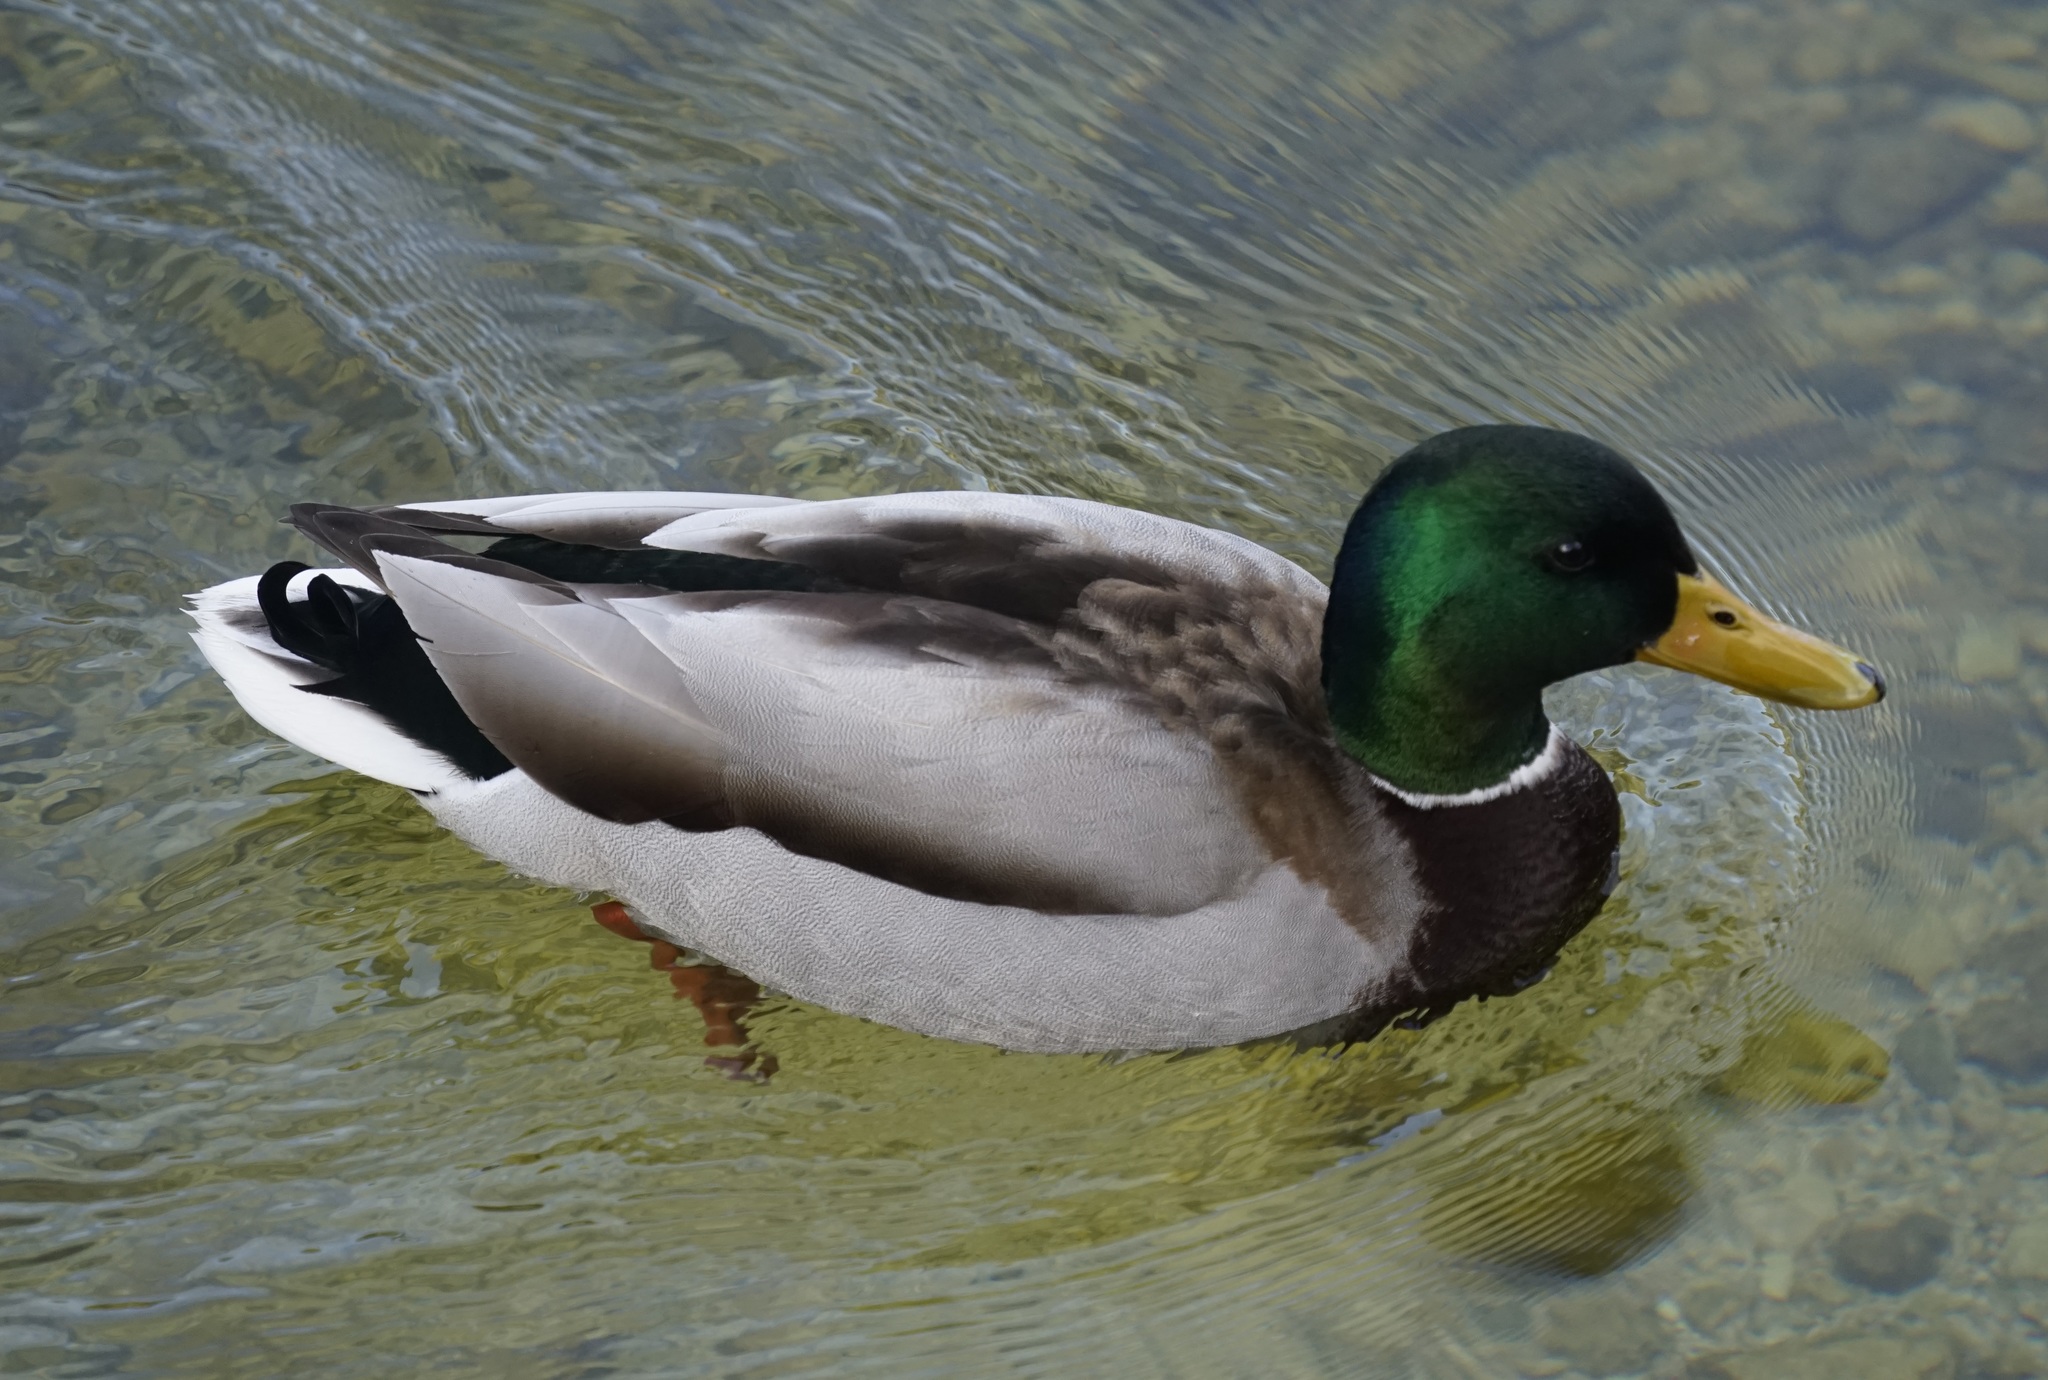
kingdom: Animalia
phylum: Chordata
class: Aves
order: Anseriformes
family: Anatidae
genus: Anas
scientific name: Anas platyrhynchos
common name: Mallard
